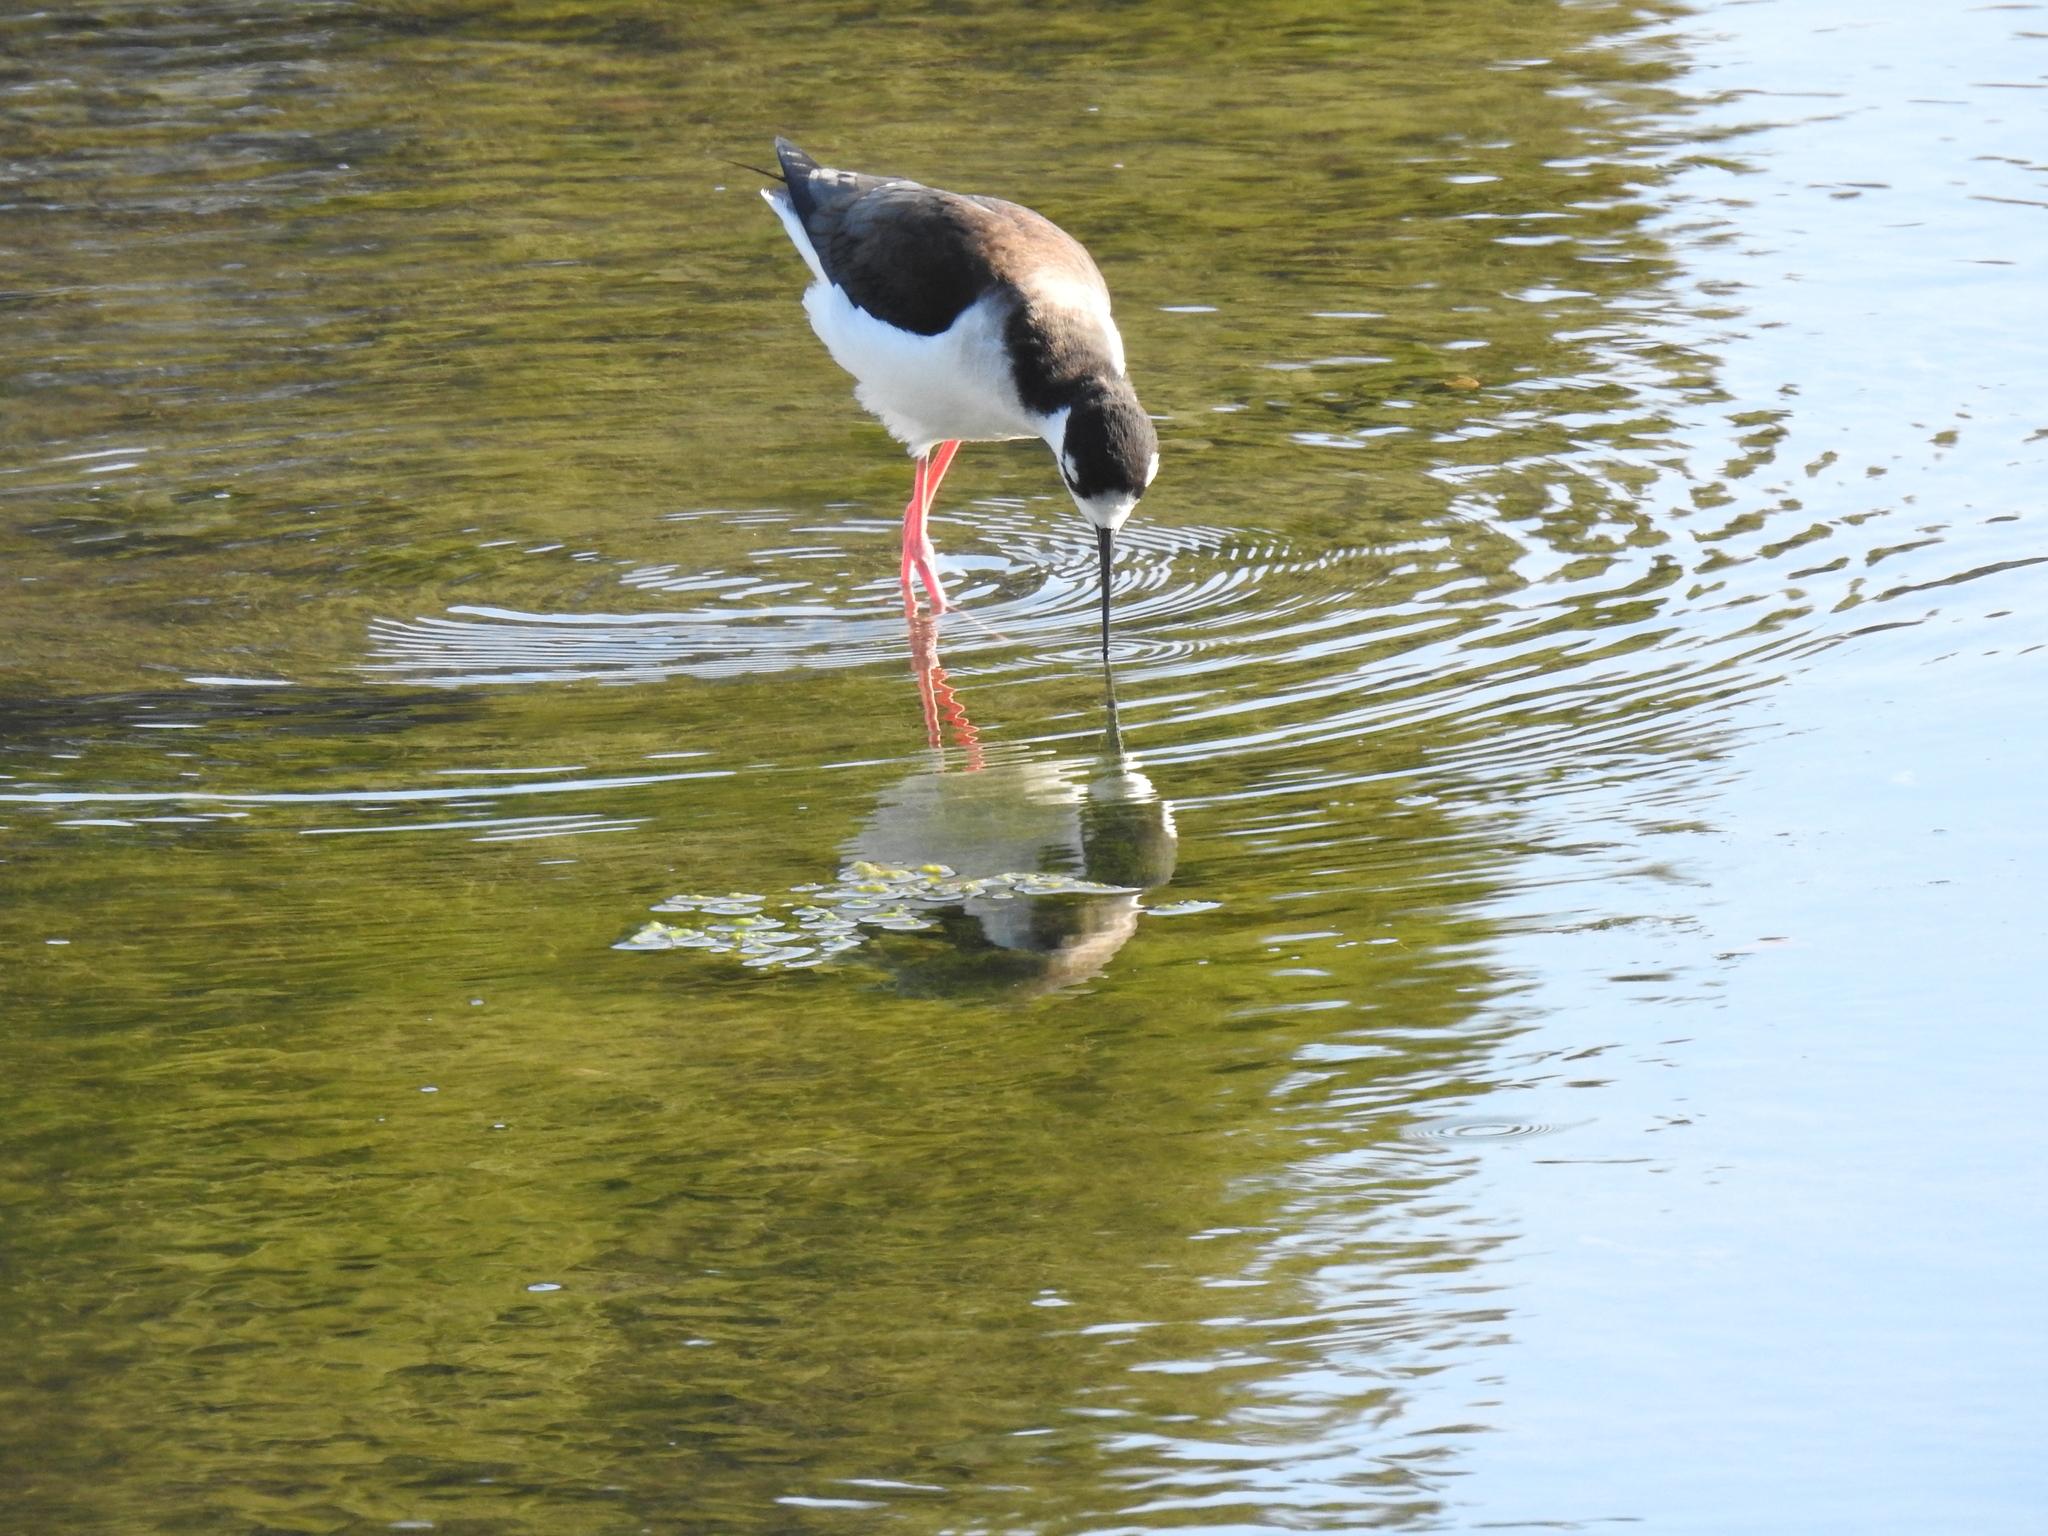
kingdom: Animalia
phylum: Chordata
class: Aves
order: Charadriiformes
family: Recurvirostridae
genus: Himantopus
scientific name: Himantopus mexicanus
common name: Black-necked stilt
